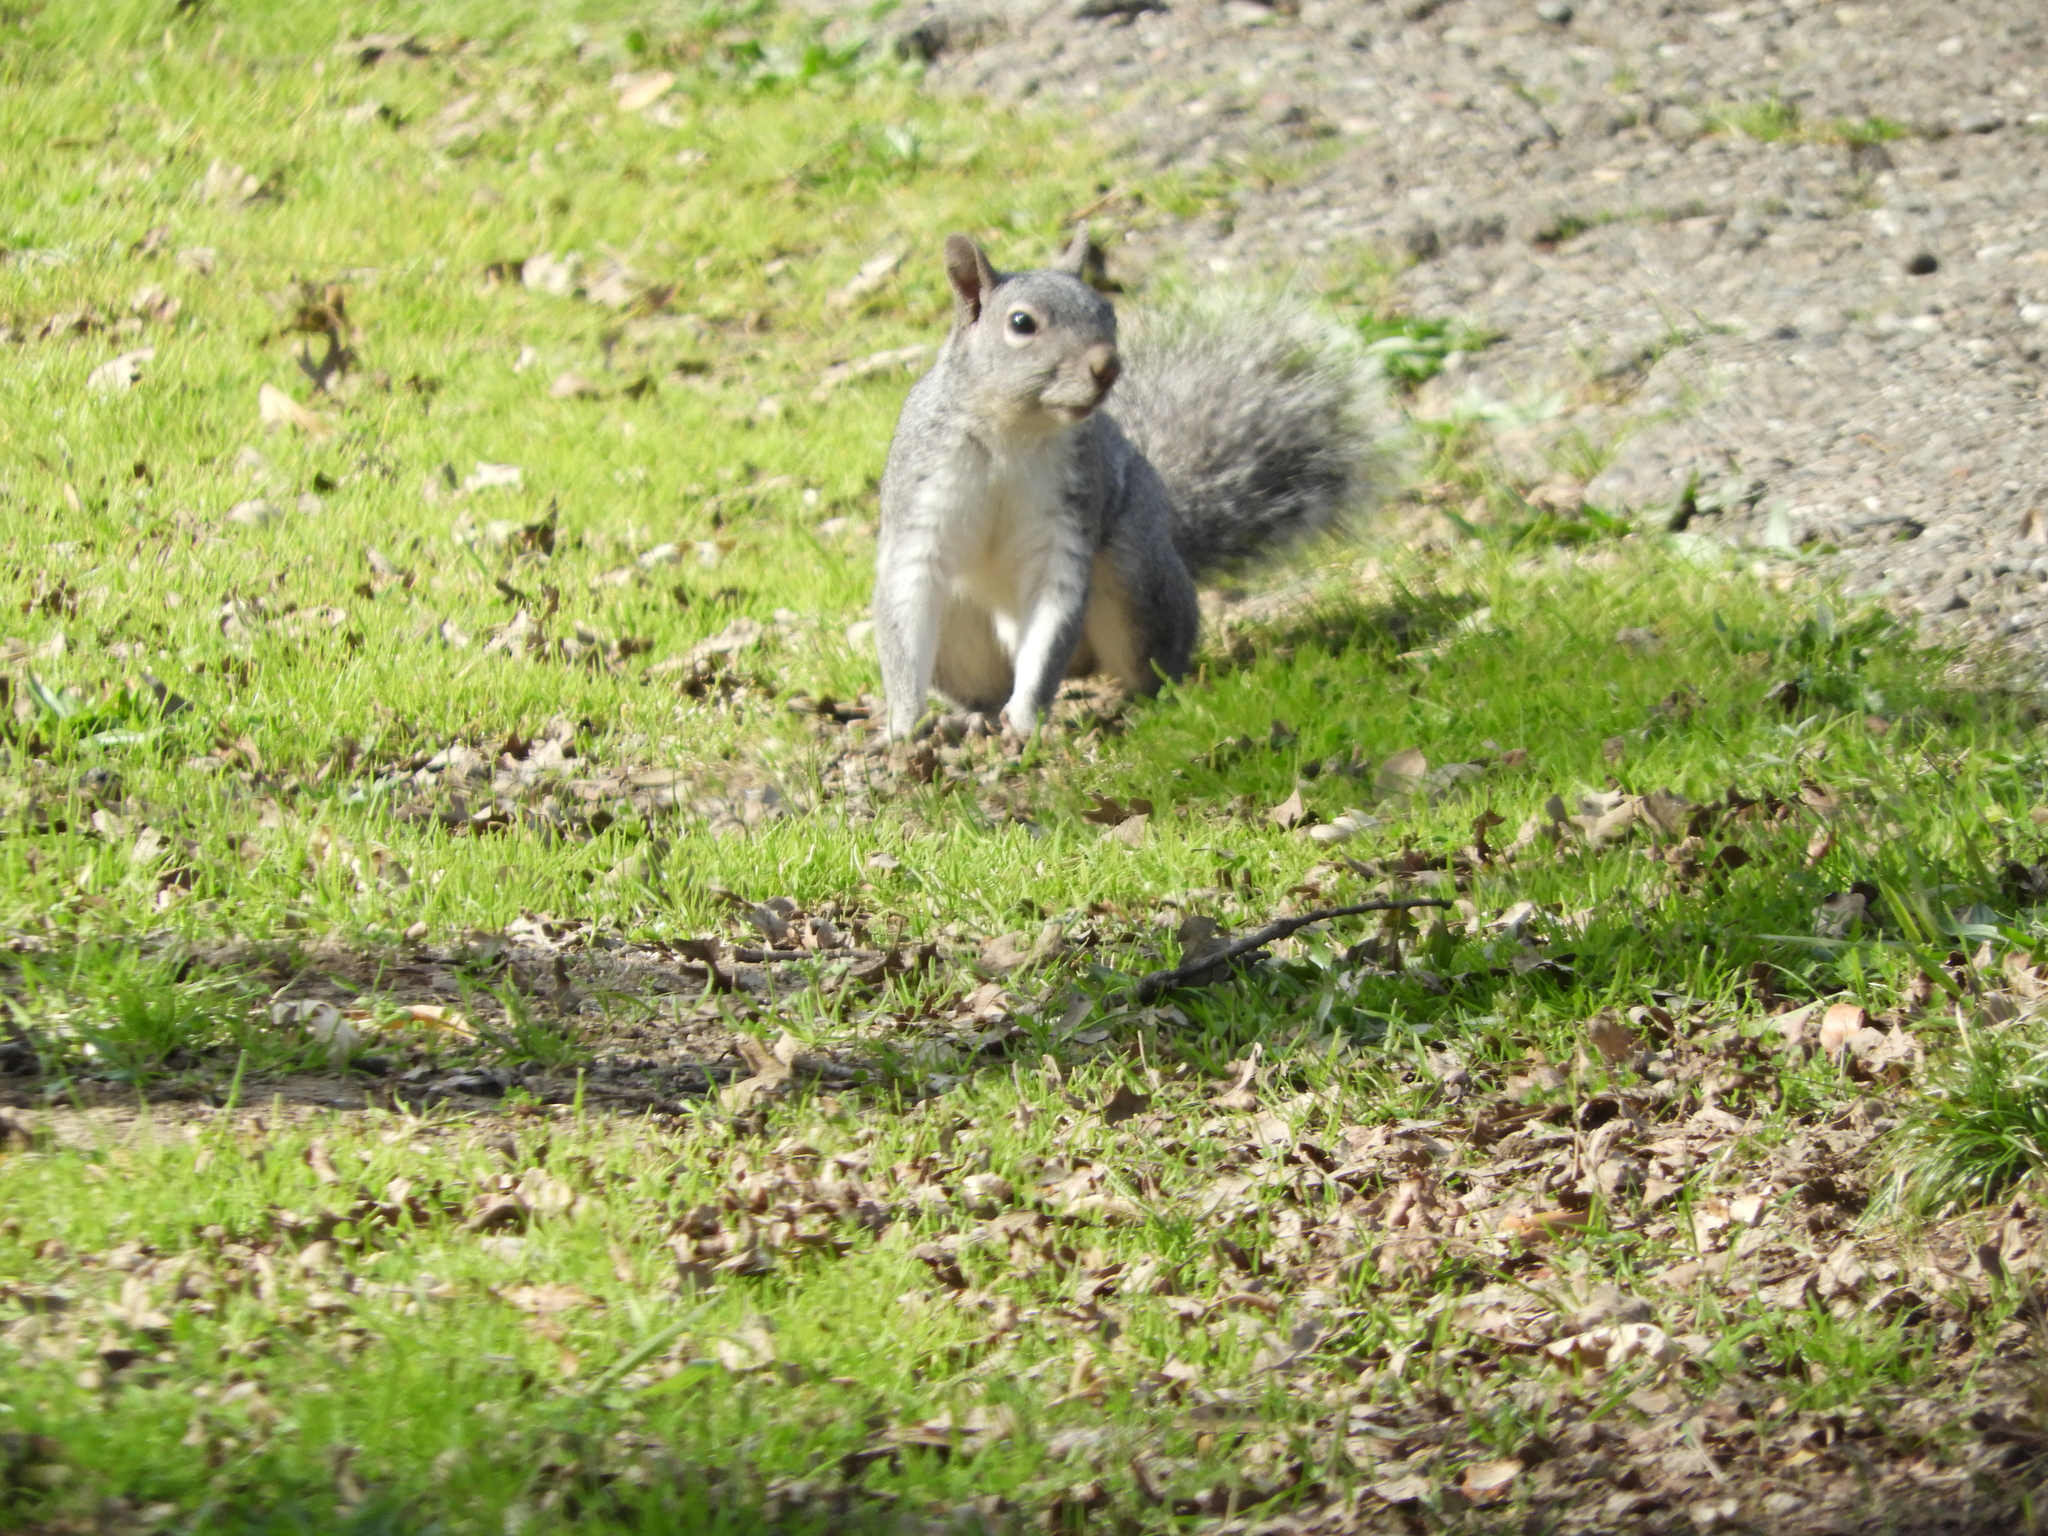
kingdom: Animalia
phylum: Chordata
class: Mammalia
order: Rodentia
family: Sciuridae
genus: Sciurus
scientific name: Sciurus griseus
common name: Western gray squirrel
